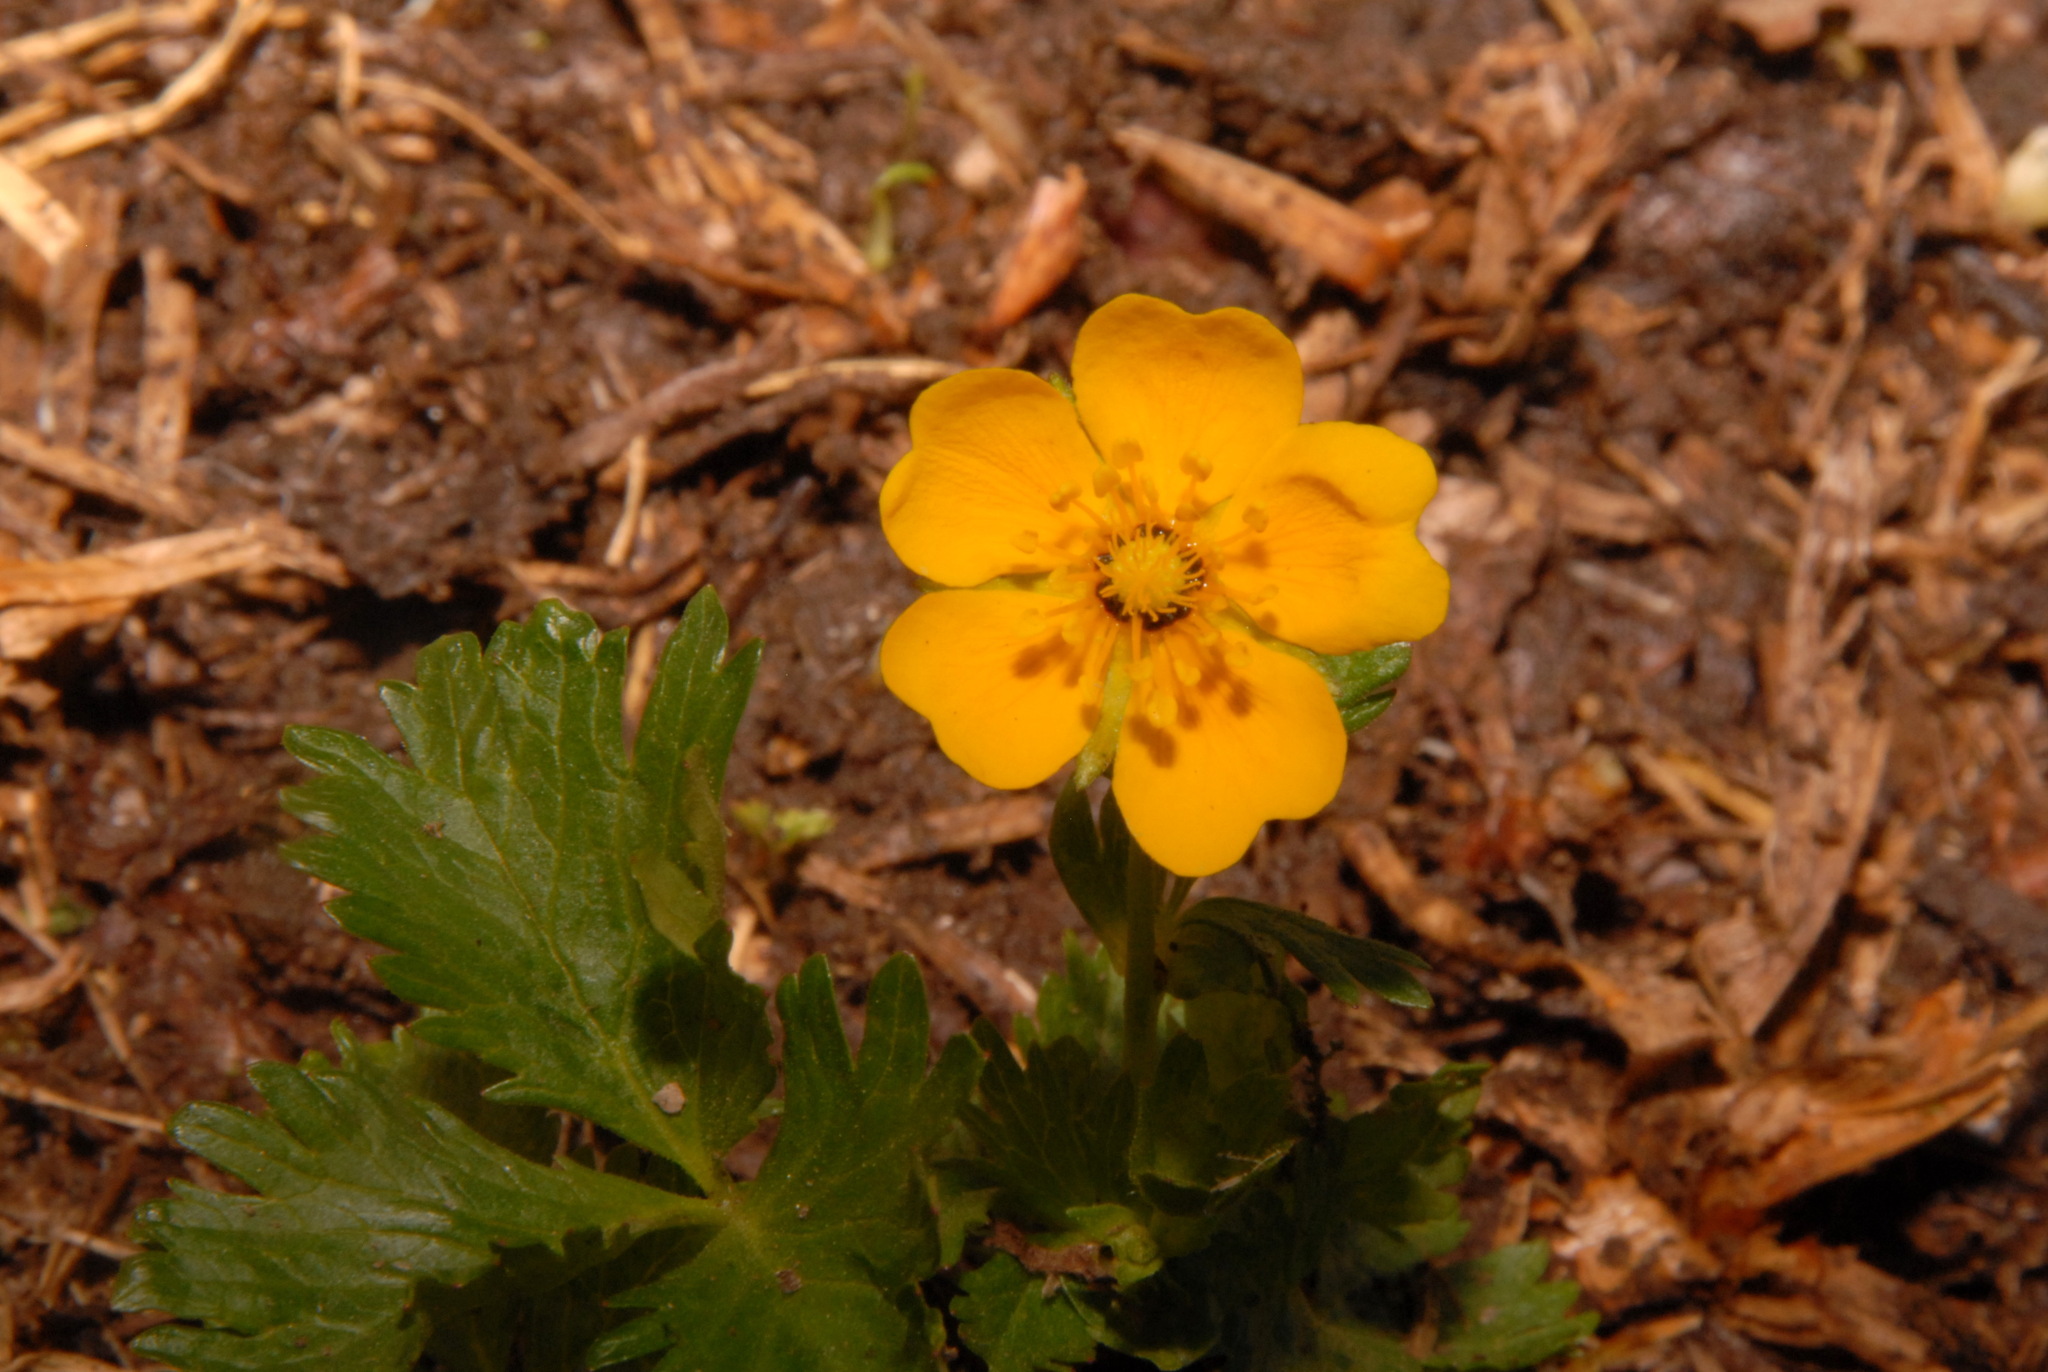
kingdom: Plantae
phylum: Tracheophyta
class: Magnoliopsida
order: Rosales
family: Rosaceae
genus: Potentilla
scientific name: Potentilla flabellifolia
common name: Mount rainier cinquefoil
